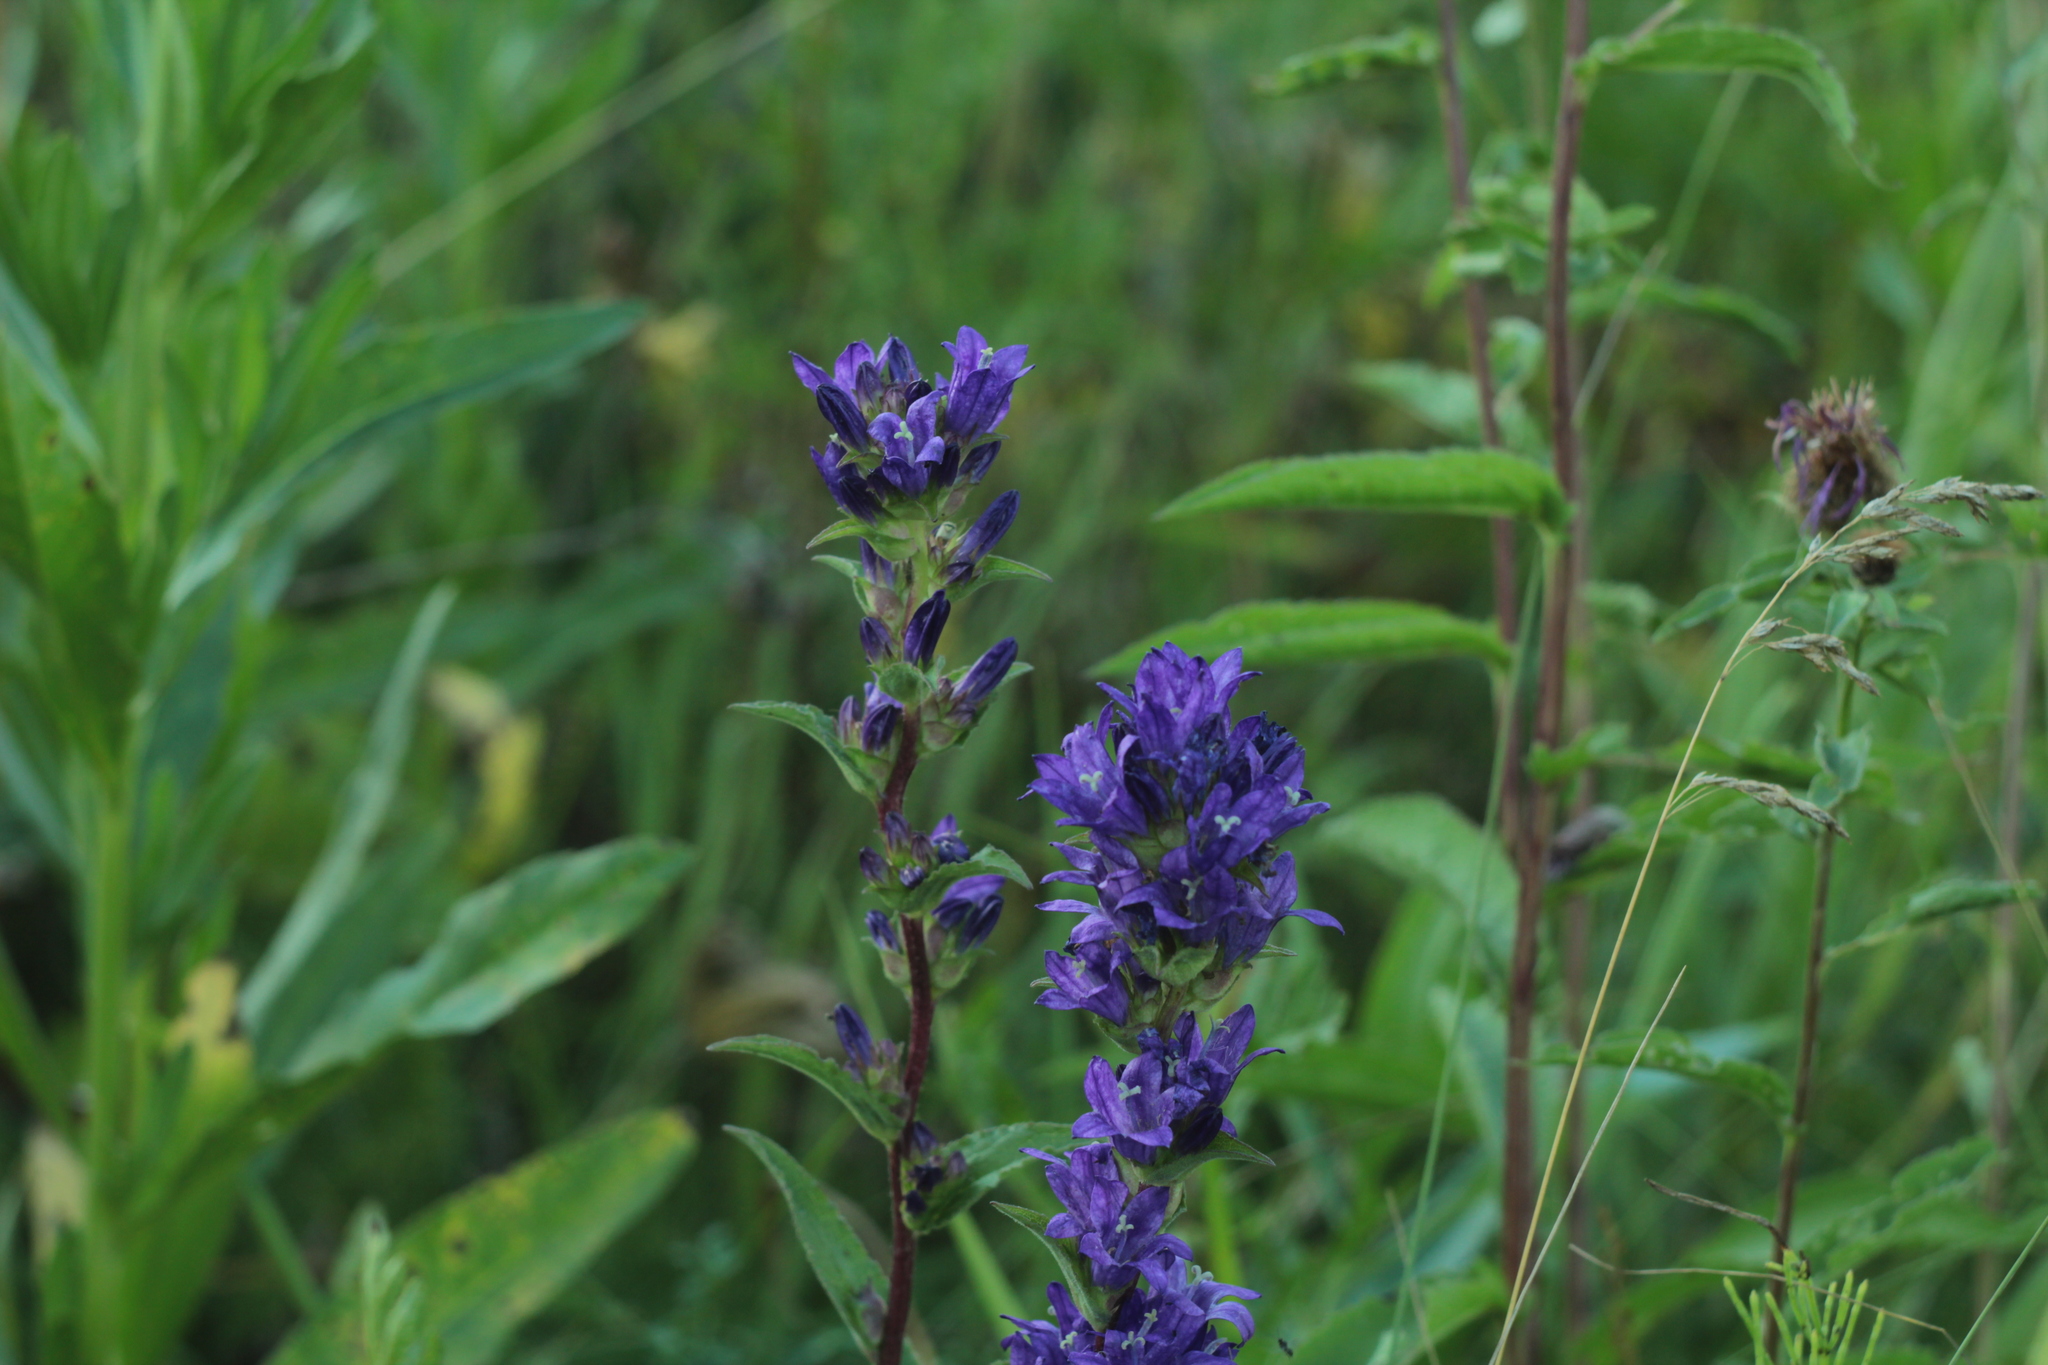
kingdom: Plantae
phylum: Tracheophyta
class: Magnoliopsida
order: Asterales
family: Campanulaceae
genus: Campanula
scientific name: Campanula glomerata
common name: Clustered bellflower
